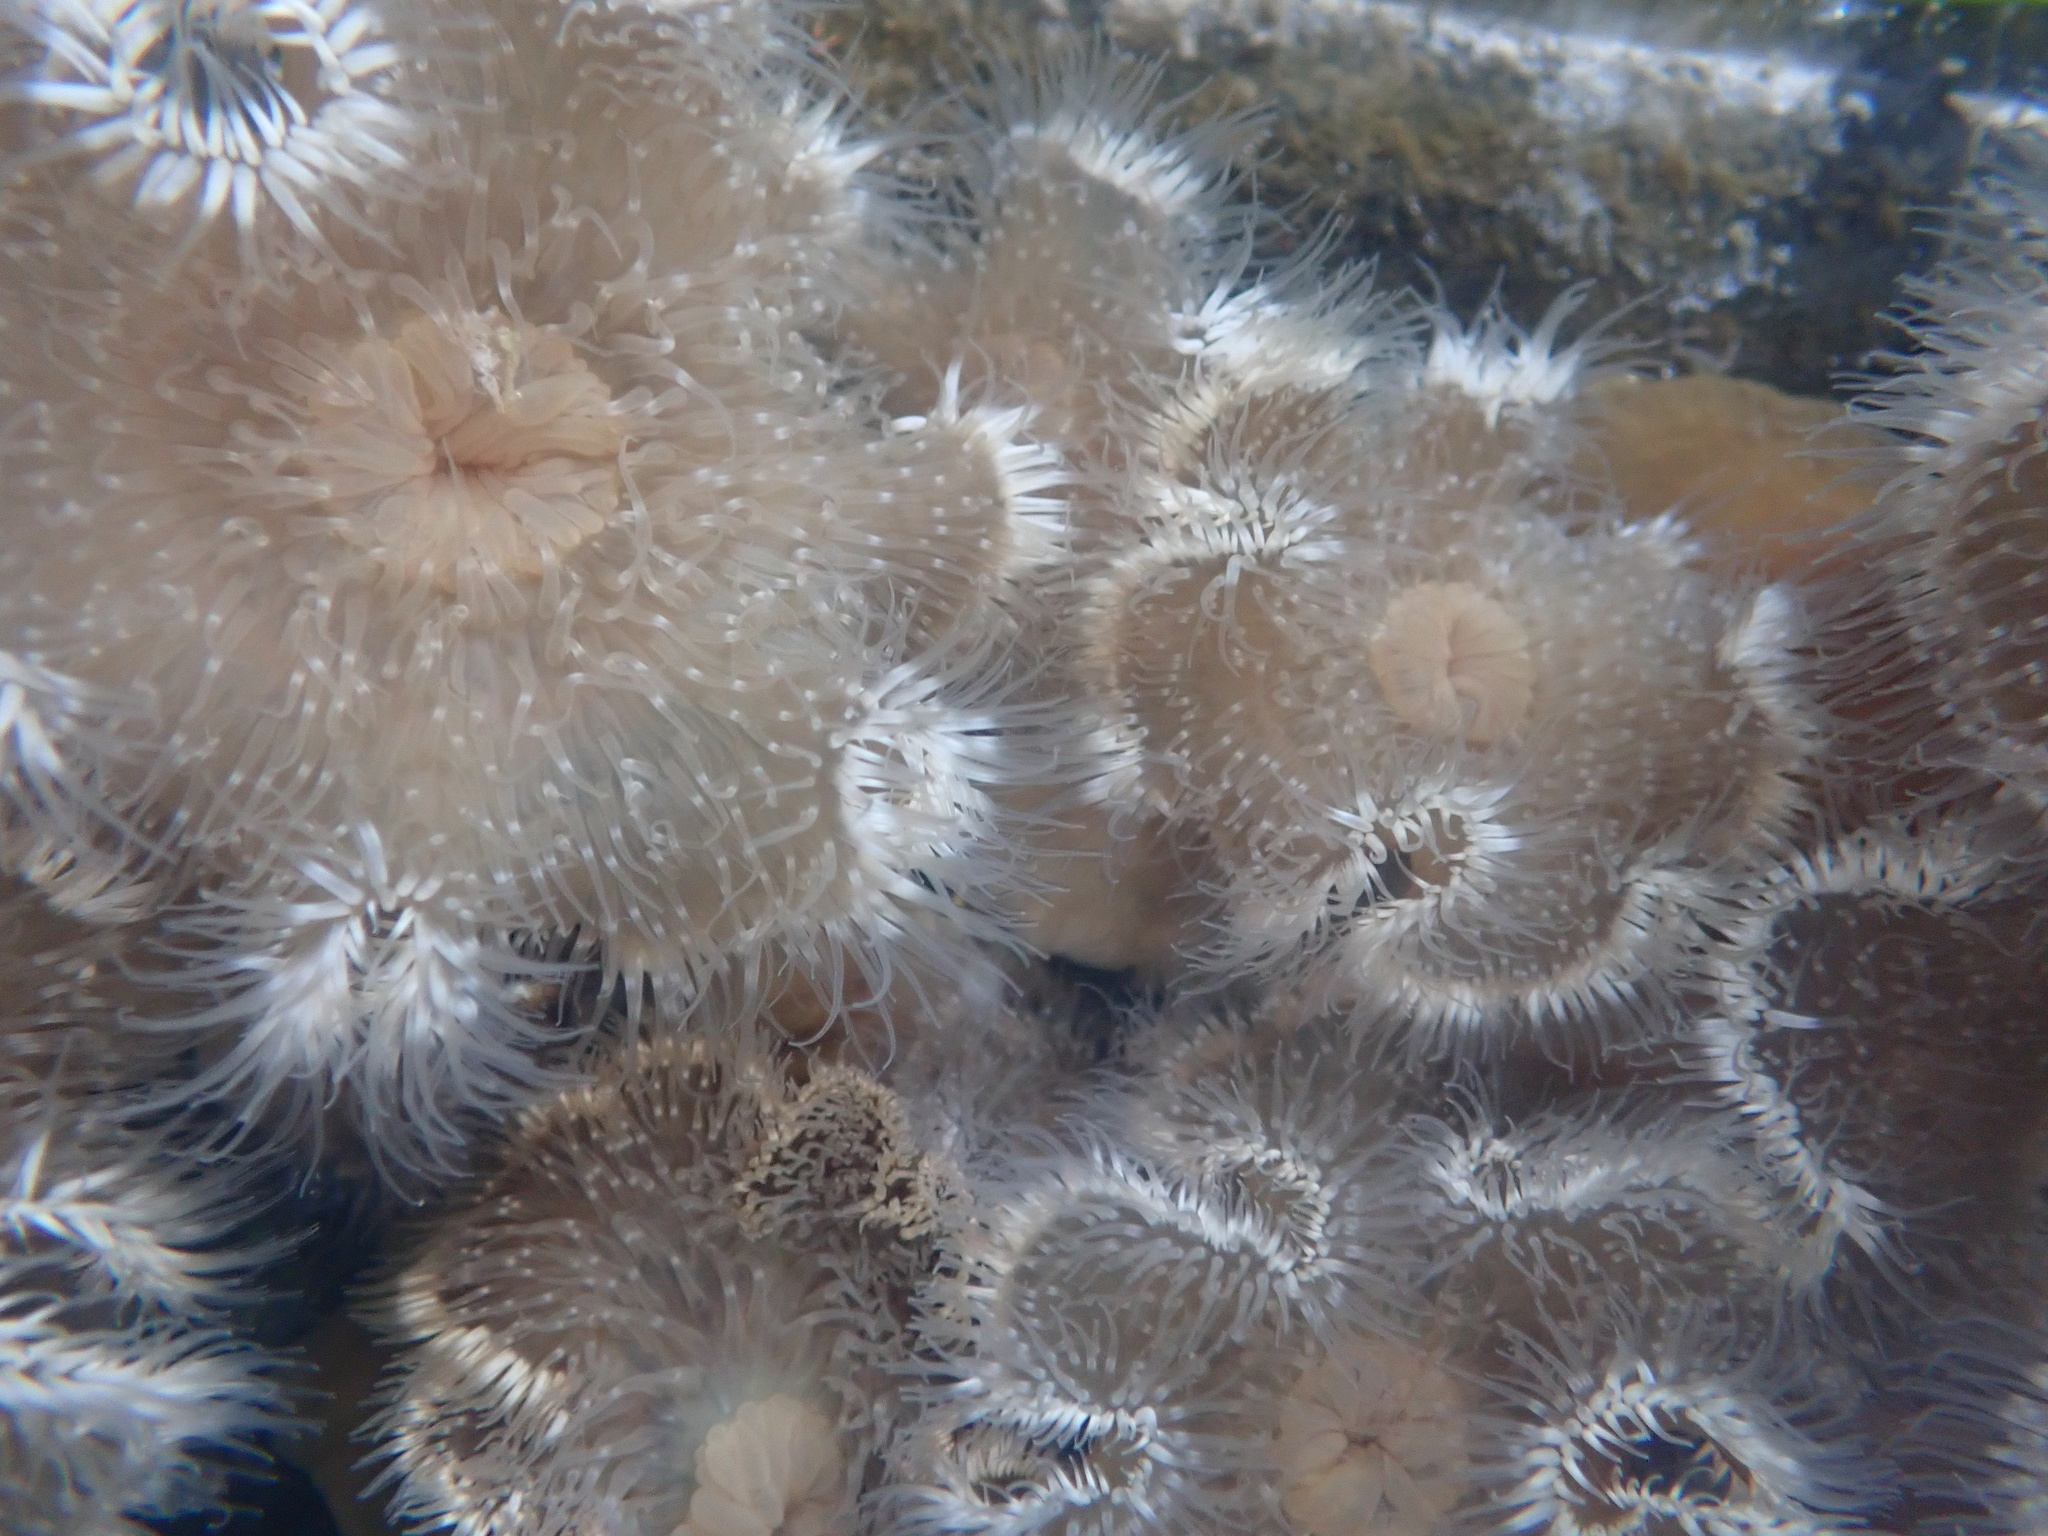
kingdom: Animalia
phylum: Cnidaria
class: Anthozoa
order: Actiniaria
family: Metridiidae
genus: Metridium
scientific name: Metridium senile
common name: Clonal plumose anemone
